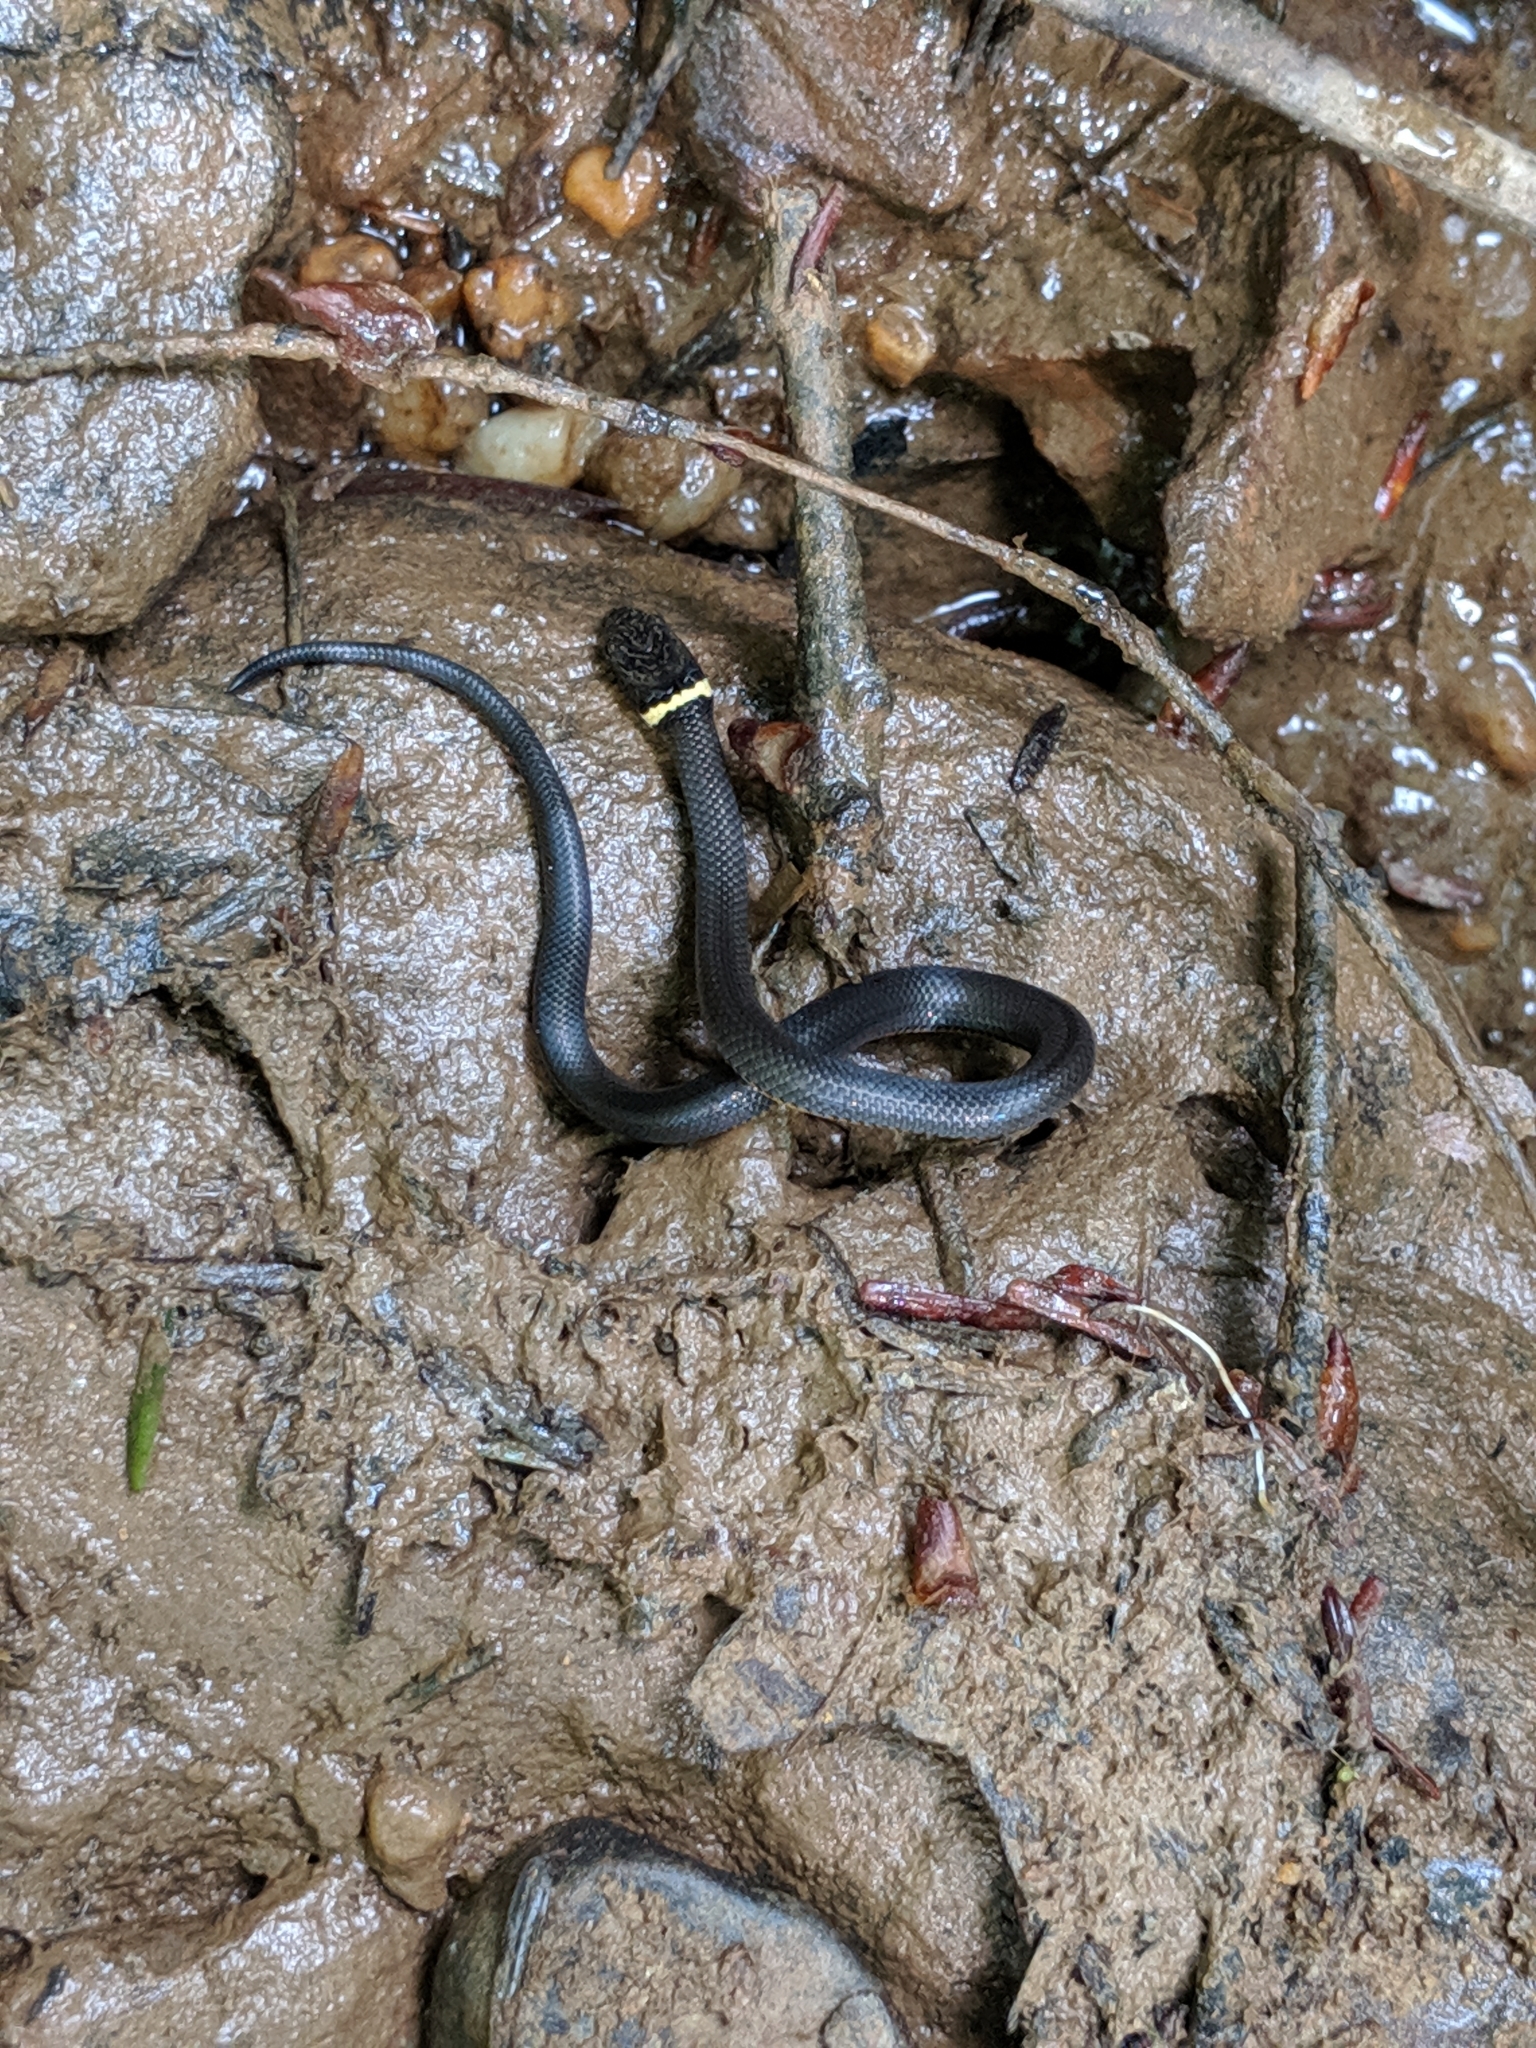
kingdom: Animalia
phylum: Chordata
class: Squamata
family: Colubridae
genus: Diadophis
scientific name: Diadophis punctatus
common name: Ringneck snake
